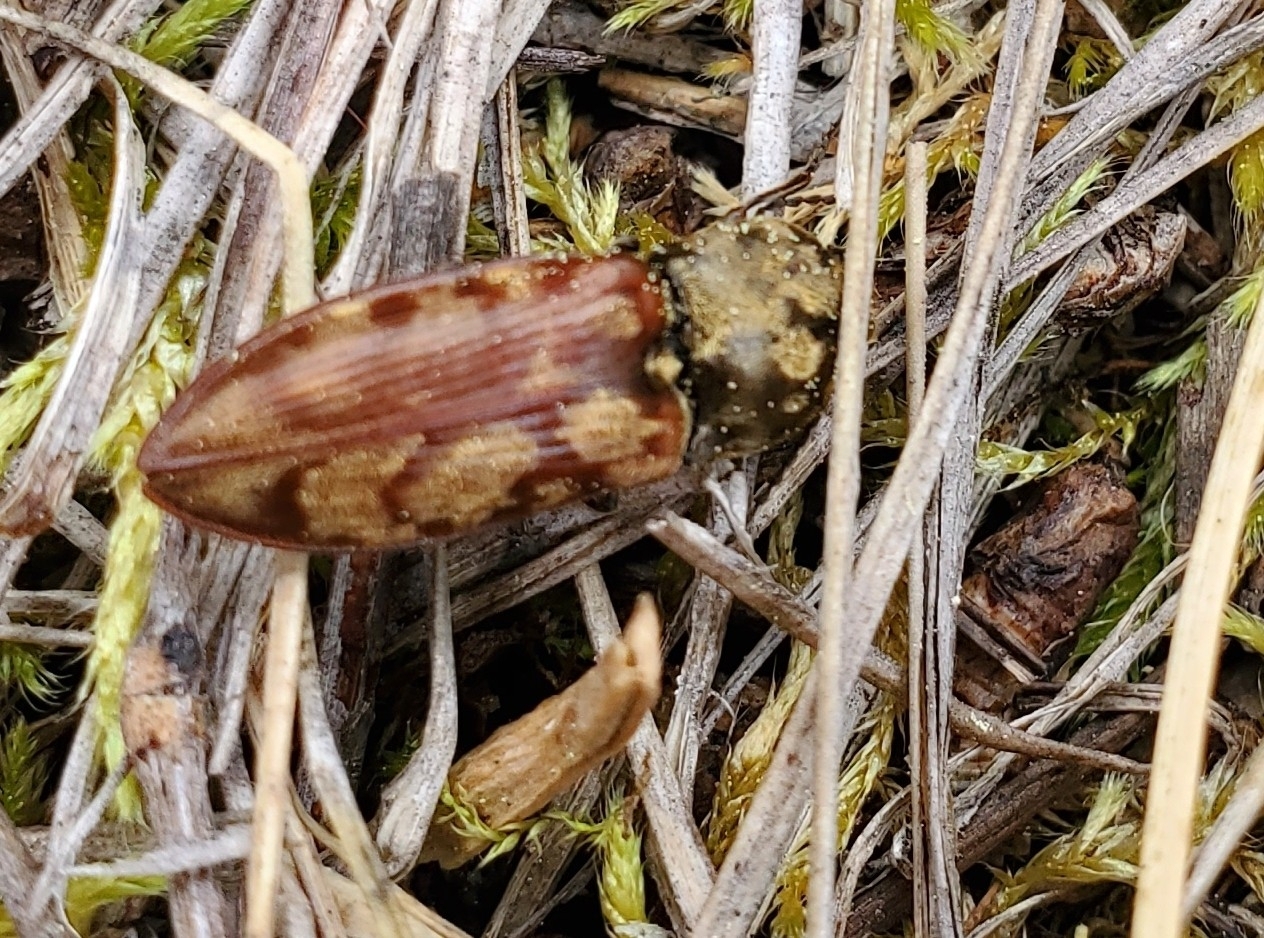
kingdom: Animalia
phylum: Arthropoda
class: Insecta
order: Coleoptera
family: Elateridae
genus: Prosternon
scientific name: Prosternon bombycinum
